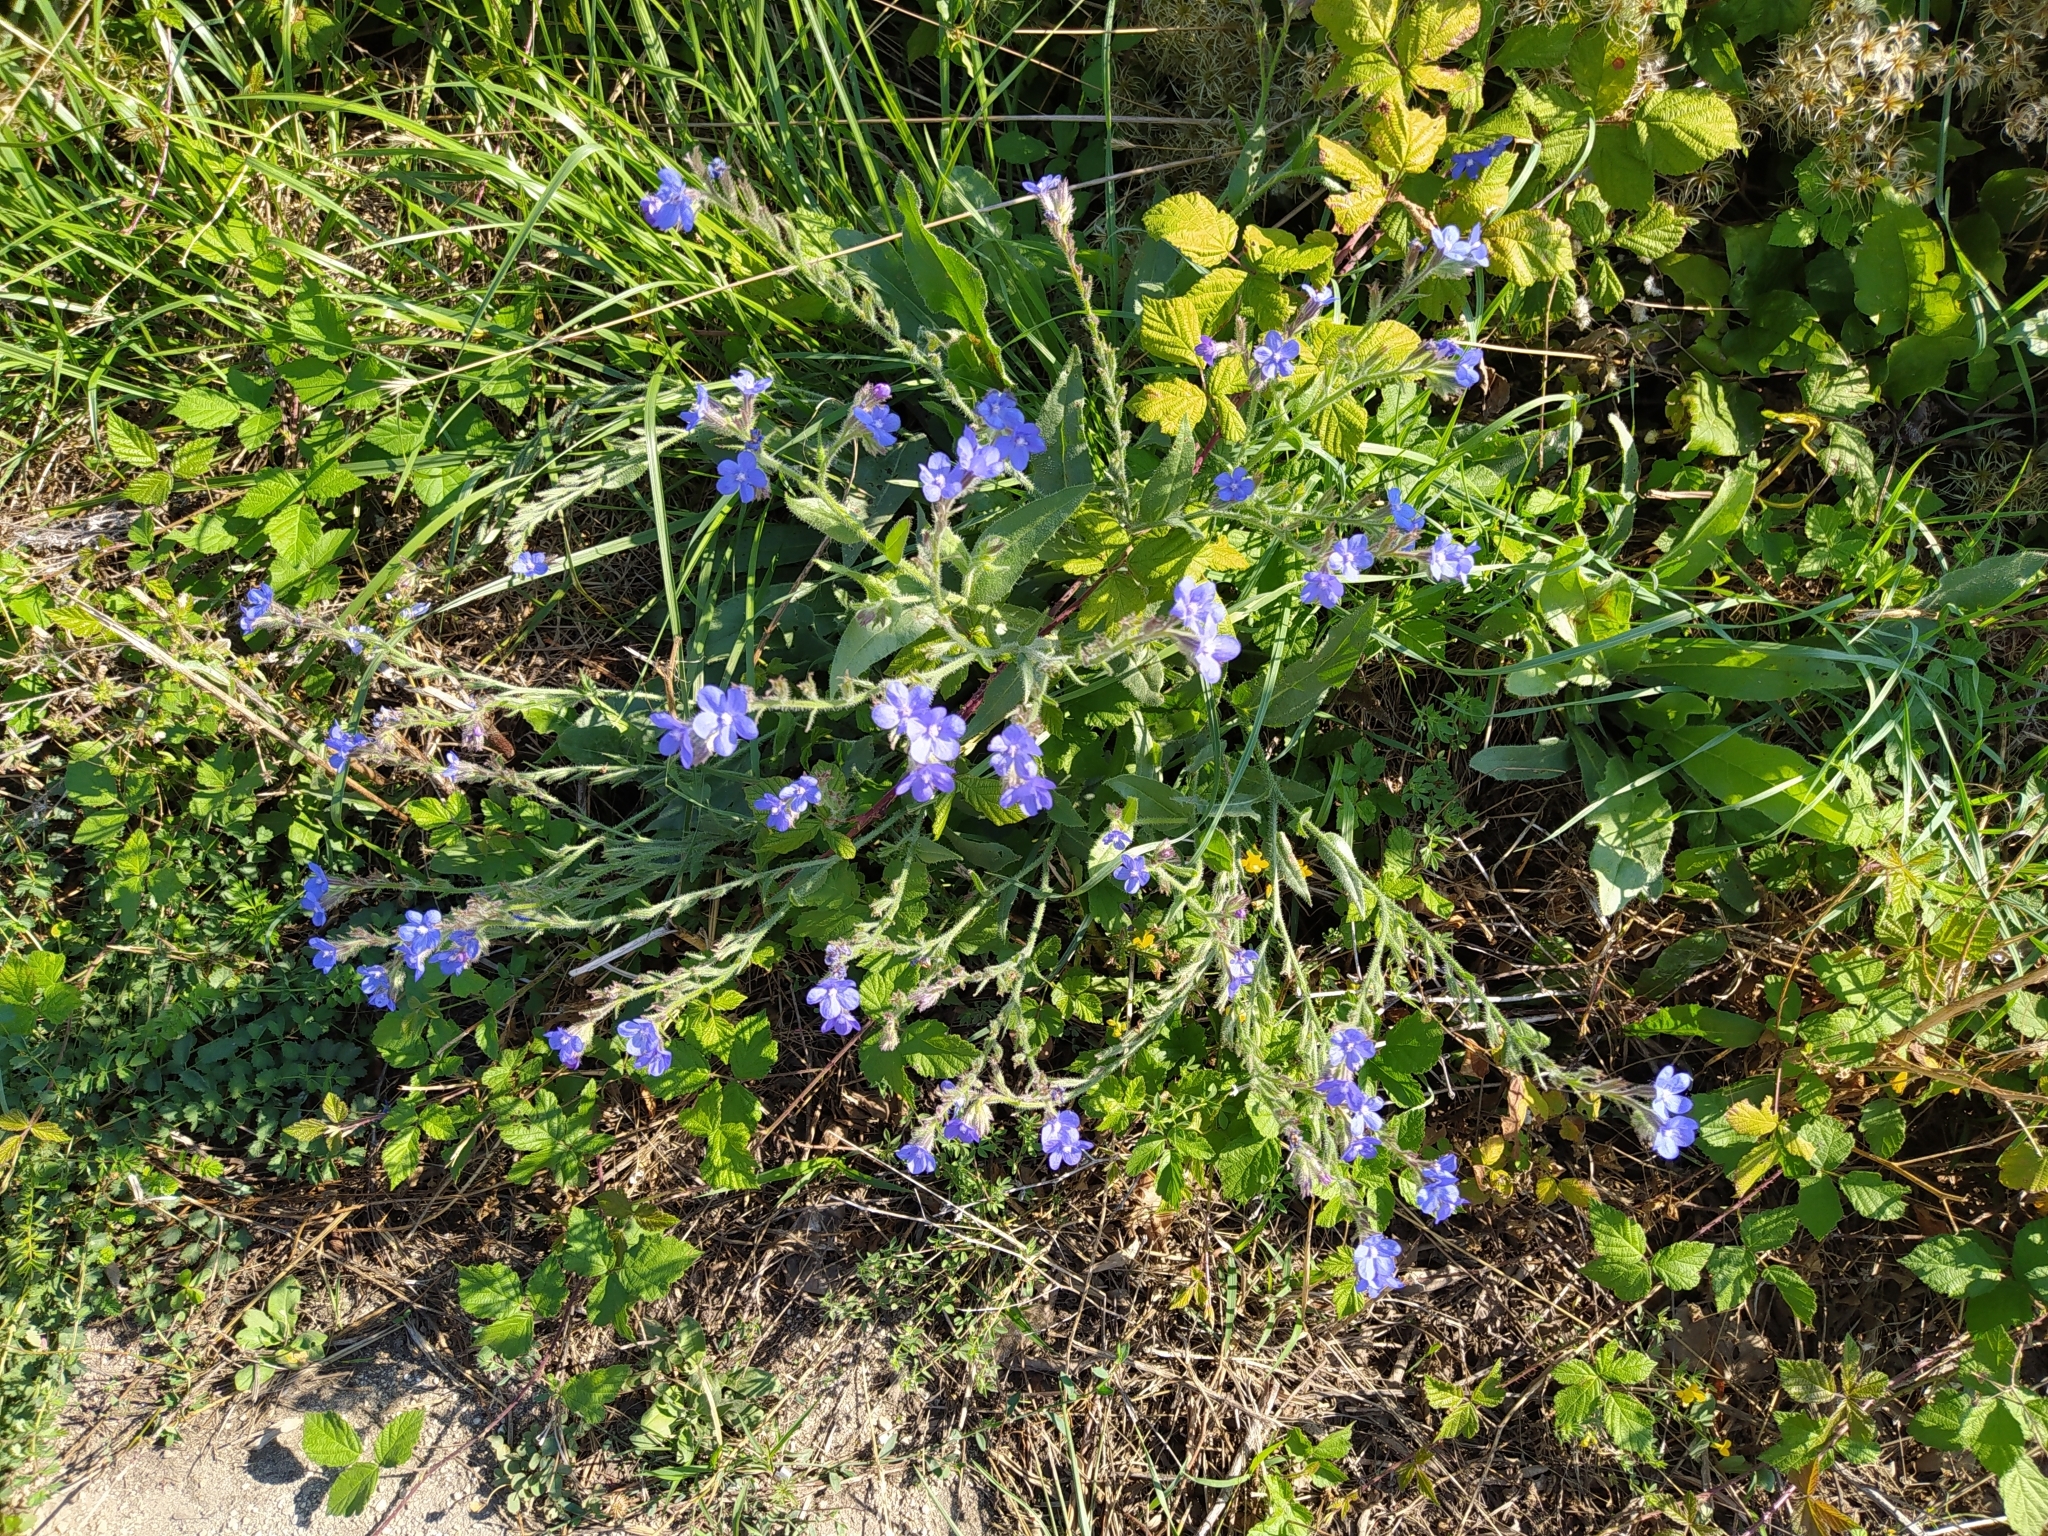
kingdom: Plantae
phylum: Tracheophyta
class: Magnoliopsida
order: Boraginales
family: Boraginaceae
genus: Anchusa
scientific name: Anchusa azurea
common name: Garden anchusa
